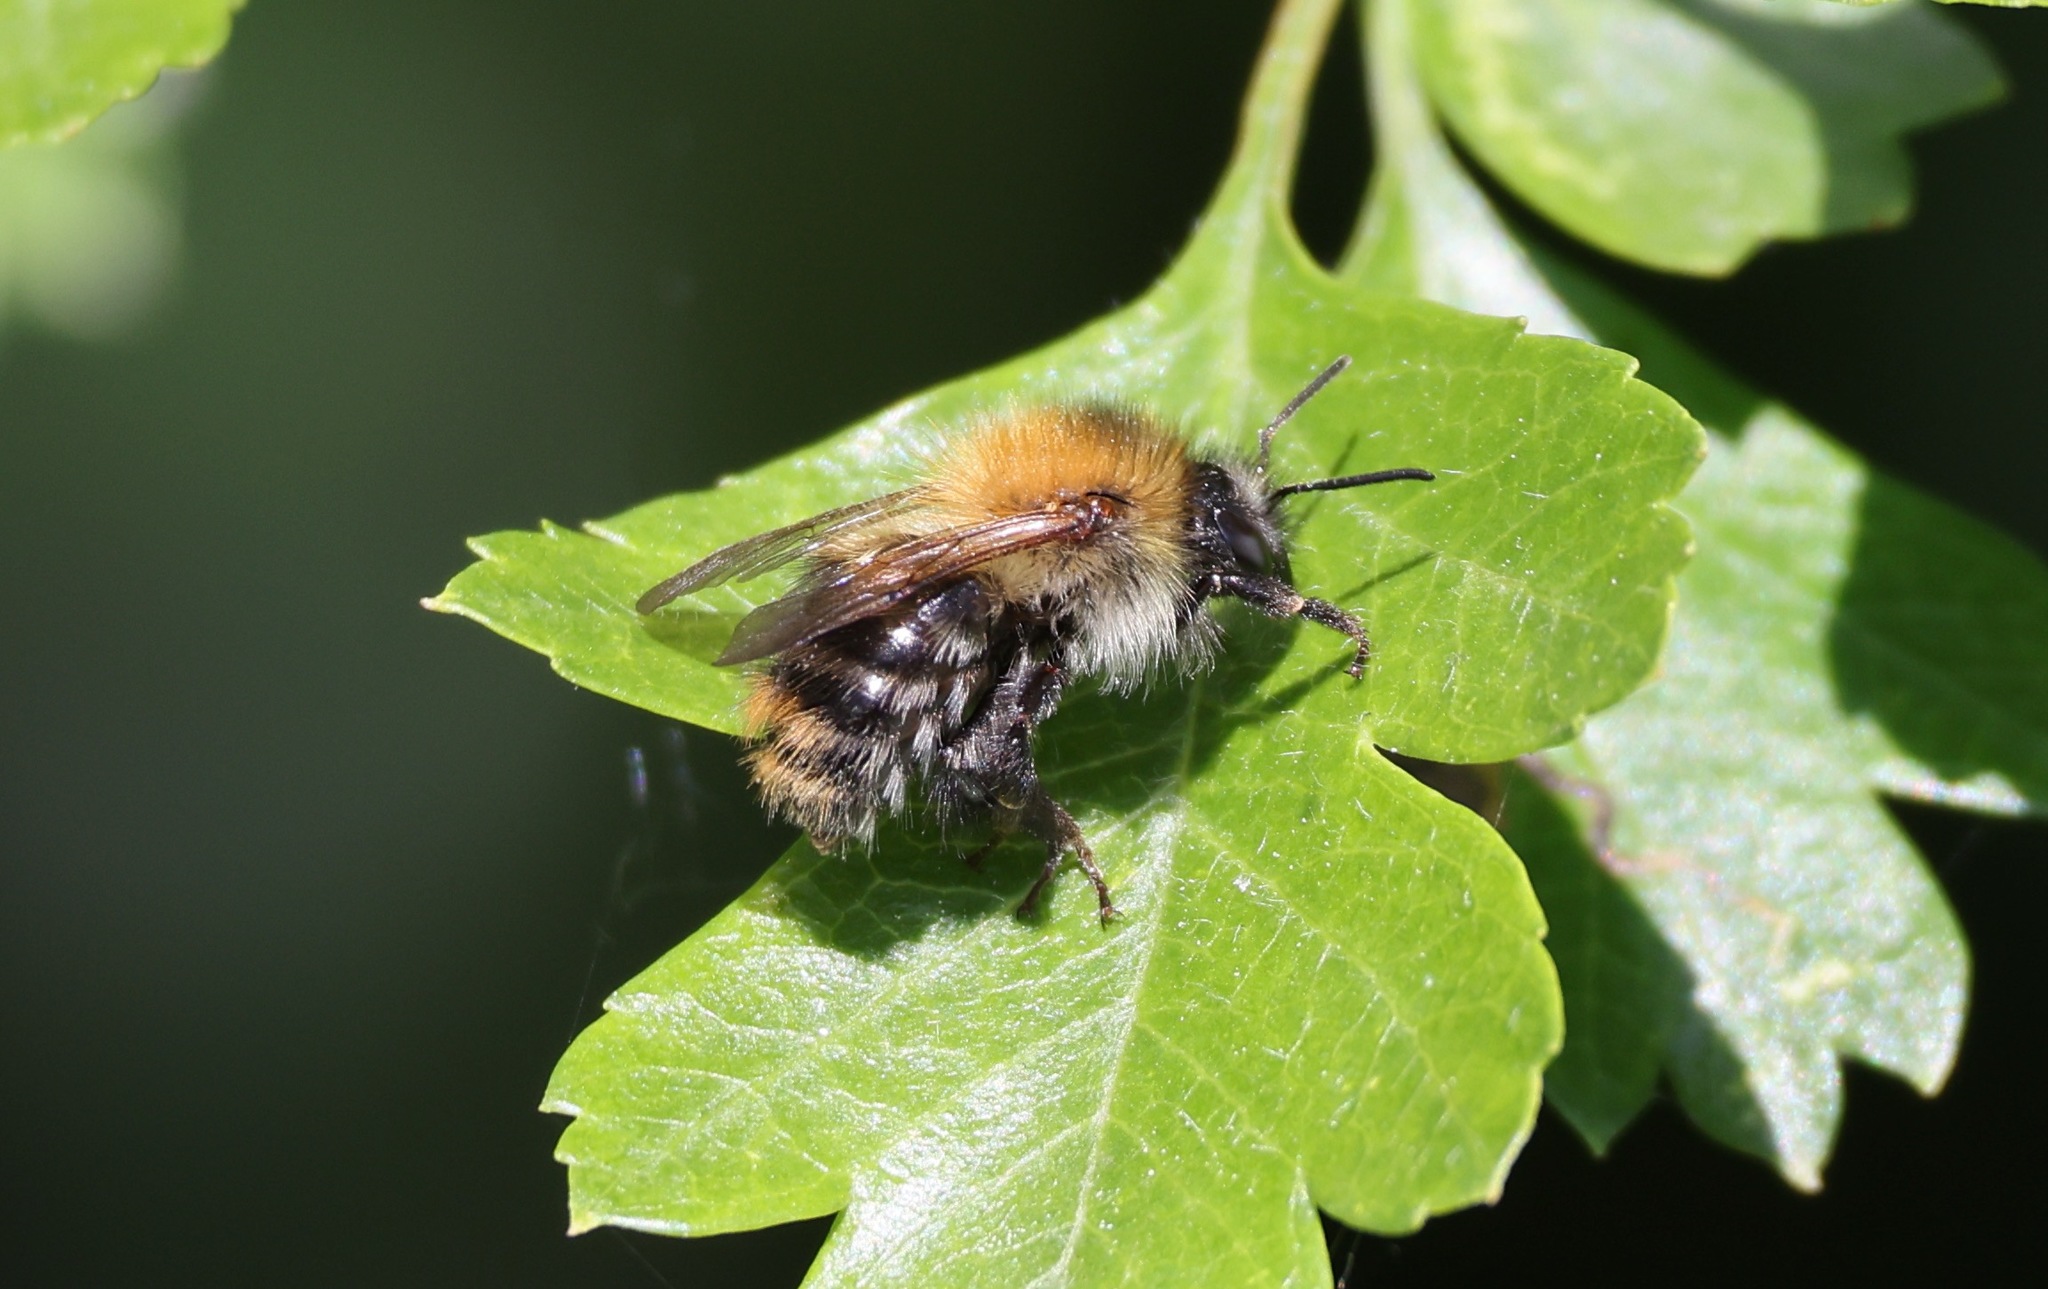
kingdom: Animalia
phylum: Arthropoda
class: Insecta
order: Hymenoptera
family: Apidae
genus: Bombus
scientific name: Bombus pascuorum
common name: Common carder bee
